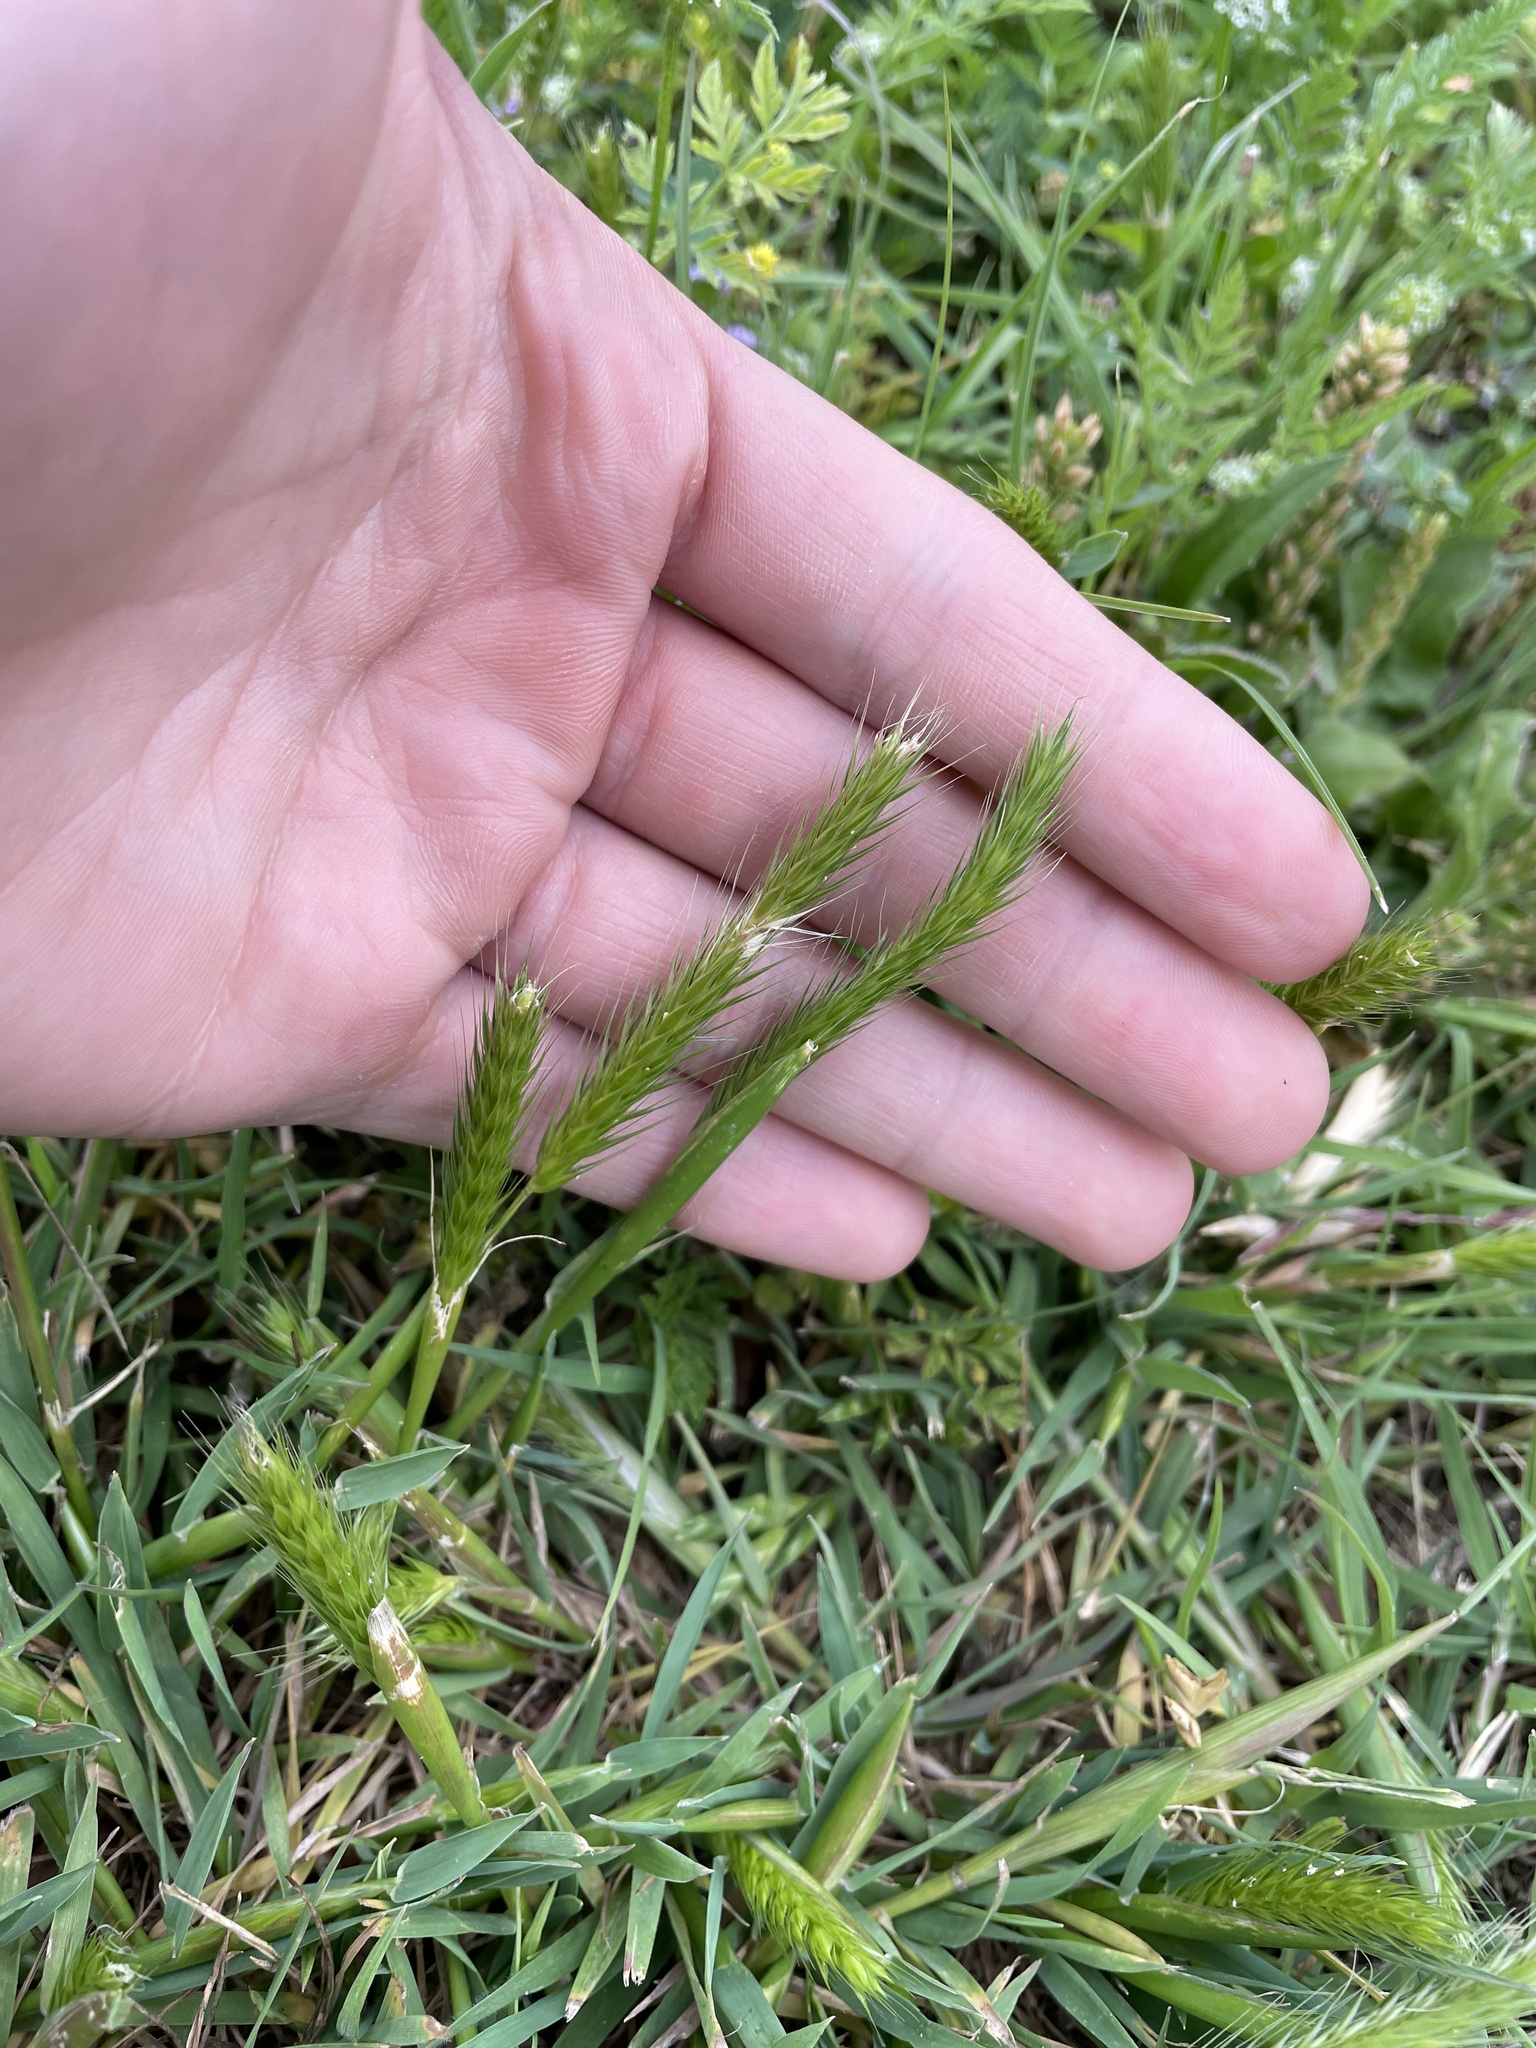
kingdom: Plantae
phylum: Tracheophyta
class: Liliopsida
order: Poales
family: Poaceae
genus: Hordeum
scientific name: Hordeum pusillum
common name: Little barley
